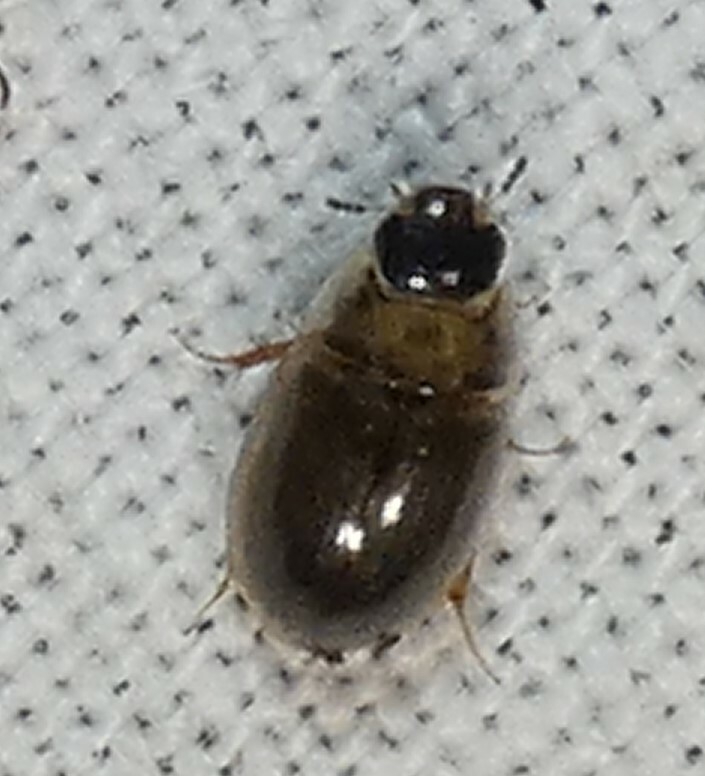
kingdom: Animalia
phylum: Arthropoda
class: Insecta
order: Coleoptera
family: Hydrophilidae
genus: Enochrus
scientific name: Enochrus
